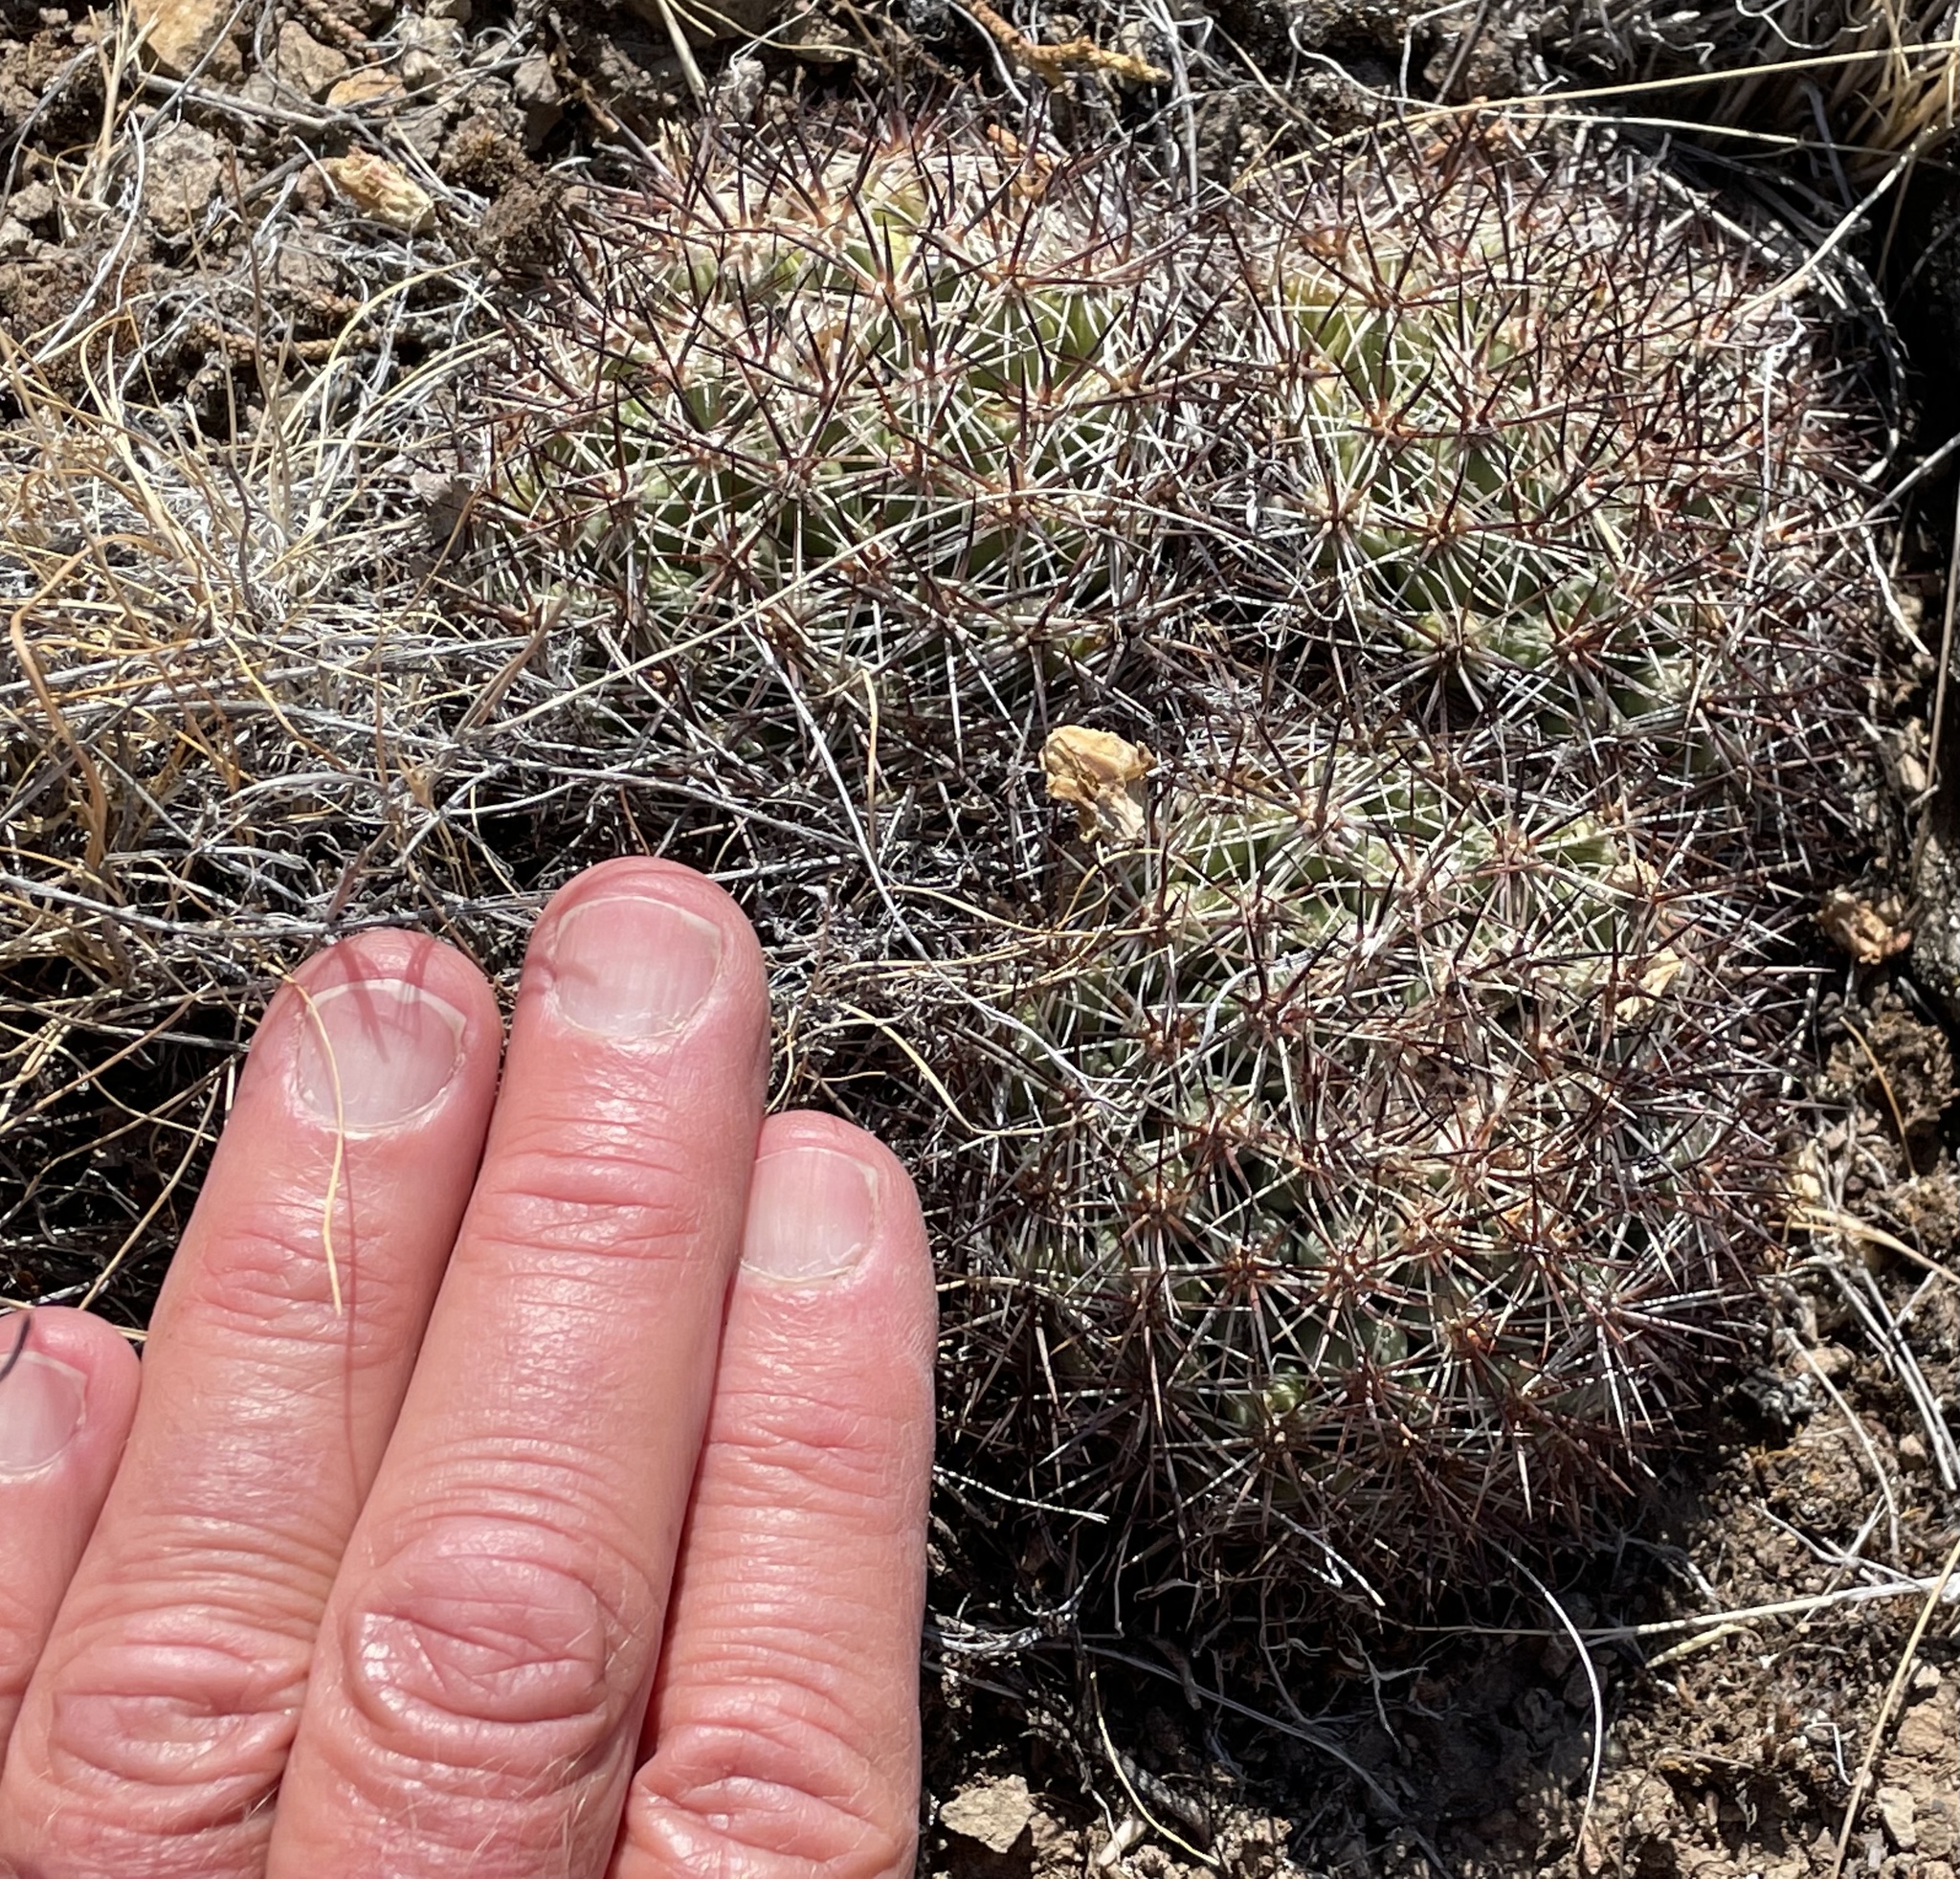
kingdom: Plantae
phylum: Tracheophyta
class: Magnoliopsida
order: Caryophyllales
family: Cactaceae
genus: Pediocactus
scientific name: Pediocactus nigrispinus
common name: Simpson's hedgehog cactus
